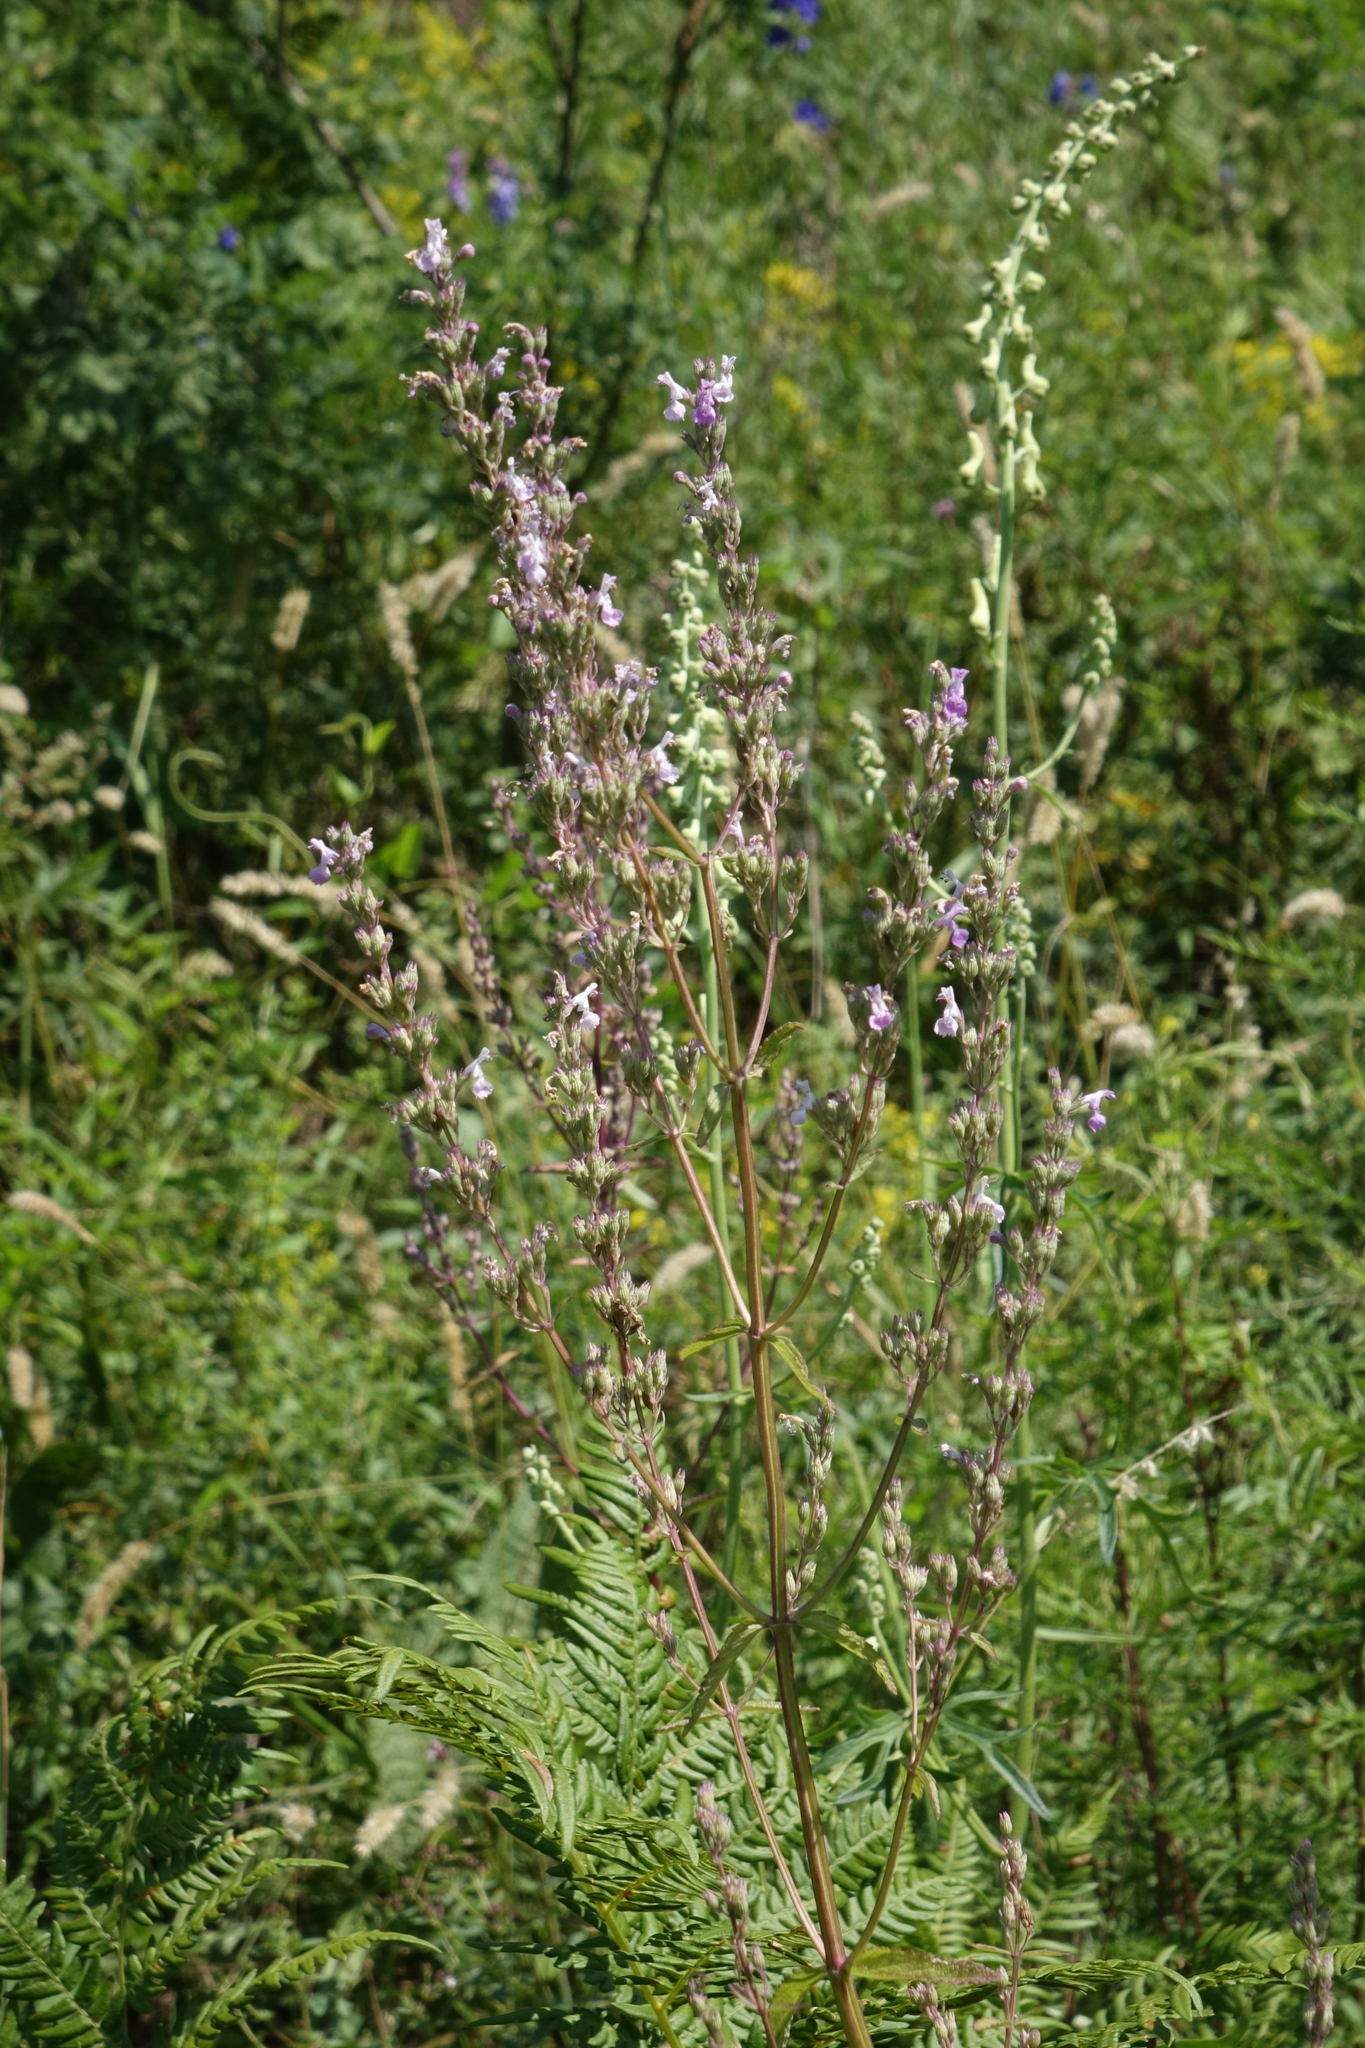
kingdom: Plantae
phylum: Tracheophyta
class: Magnoliopsida
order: Lamiales
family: Lamiaceae
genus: Nepeta
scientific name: Nepeta nuda
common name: Hairless catmint
